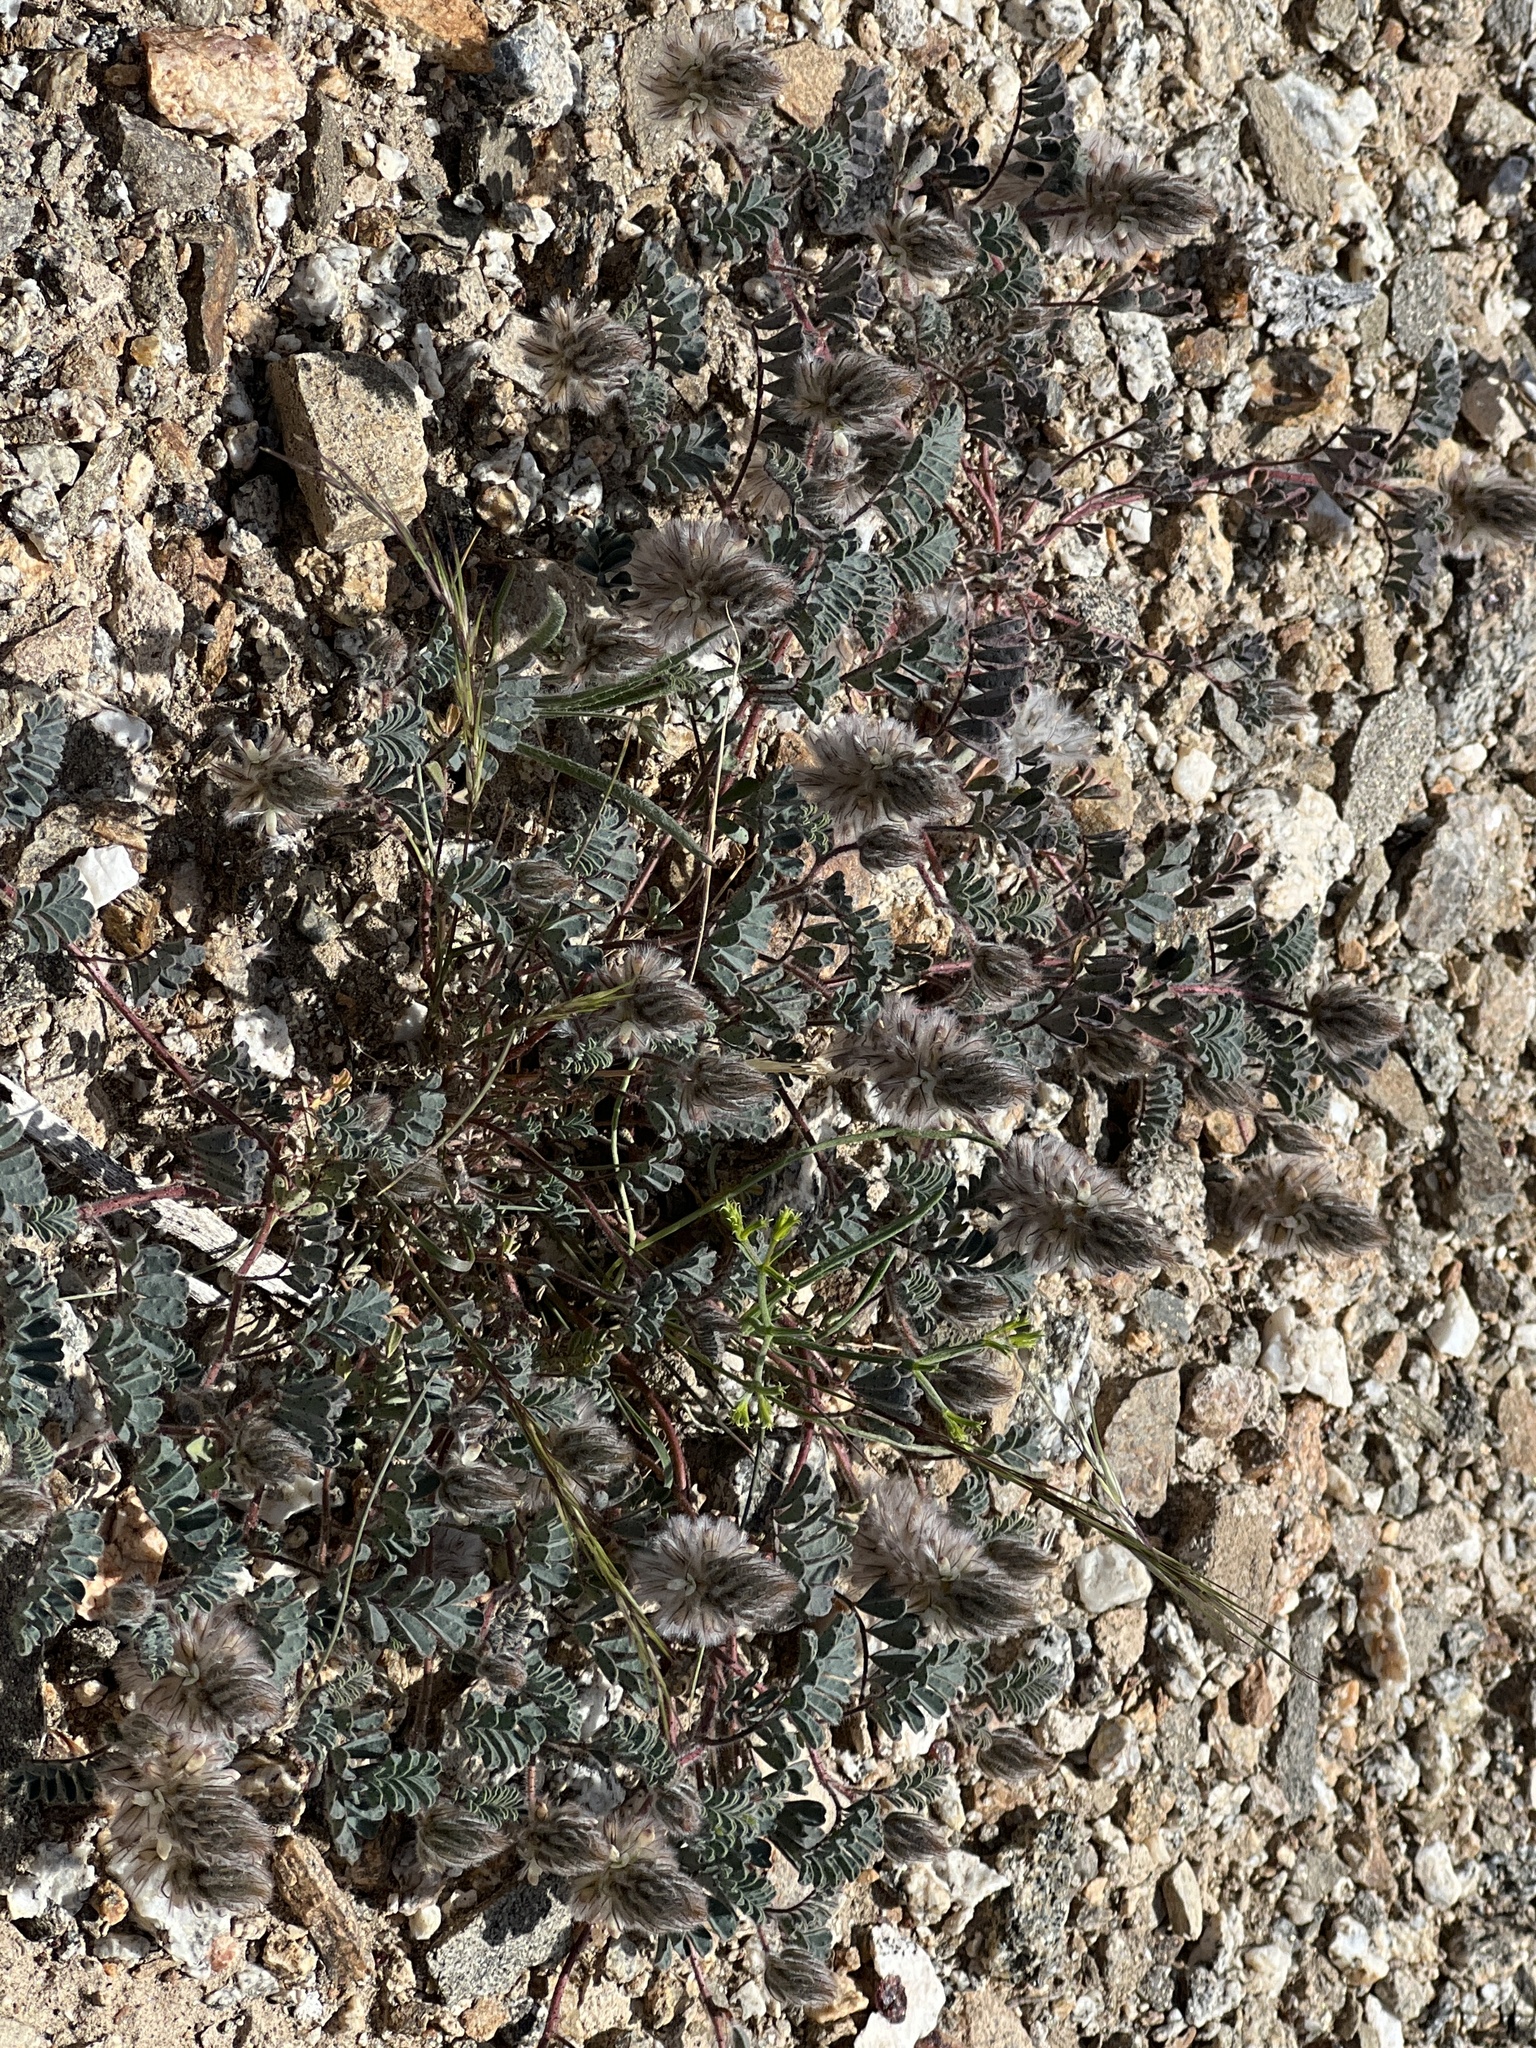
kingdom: Plantae
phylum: Tracheophyta
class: Magnoliopsida
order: Fabales
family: Fabaceae
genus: Dalea
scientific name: Dalea mollis
